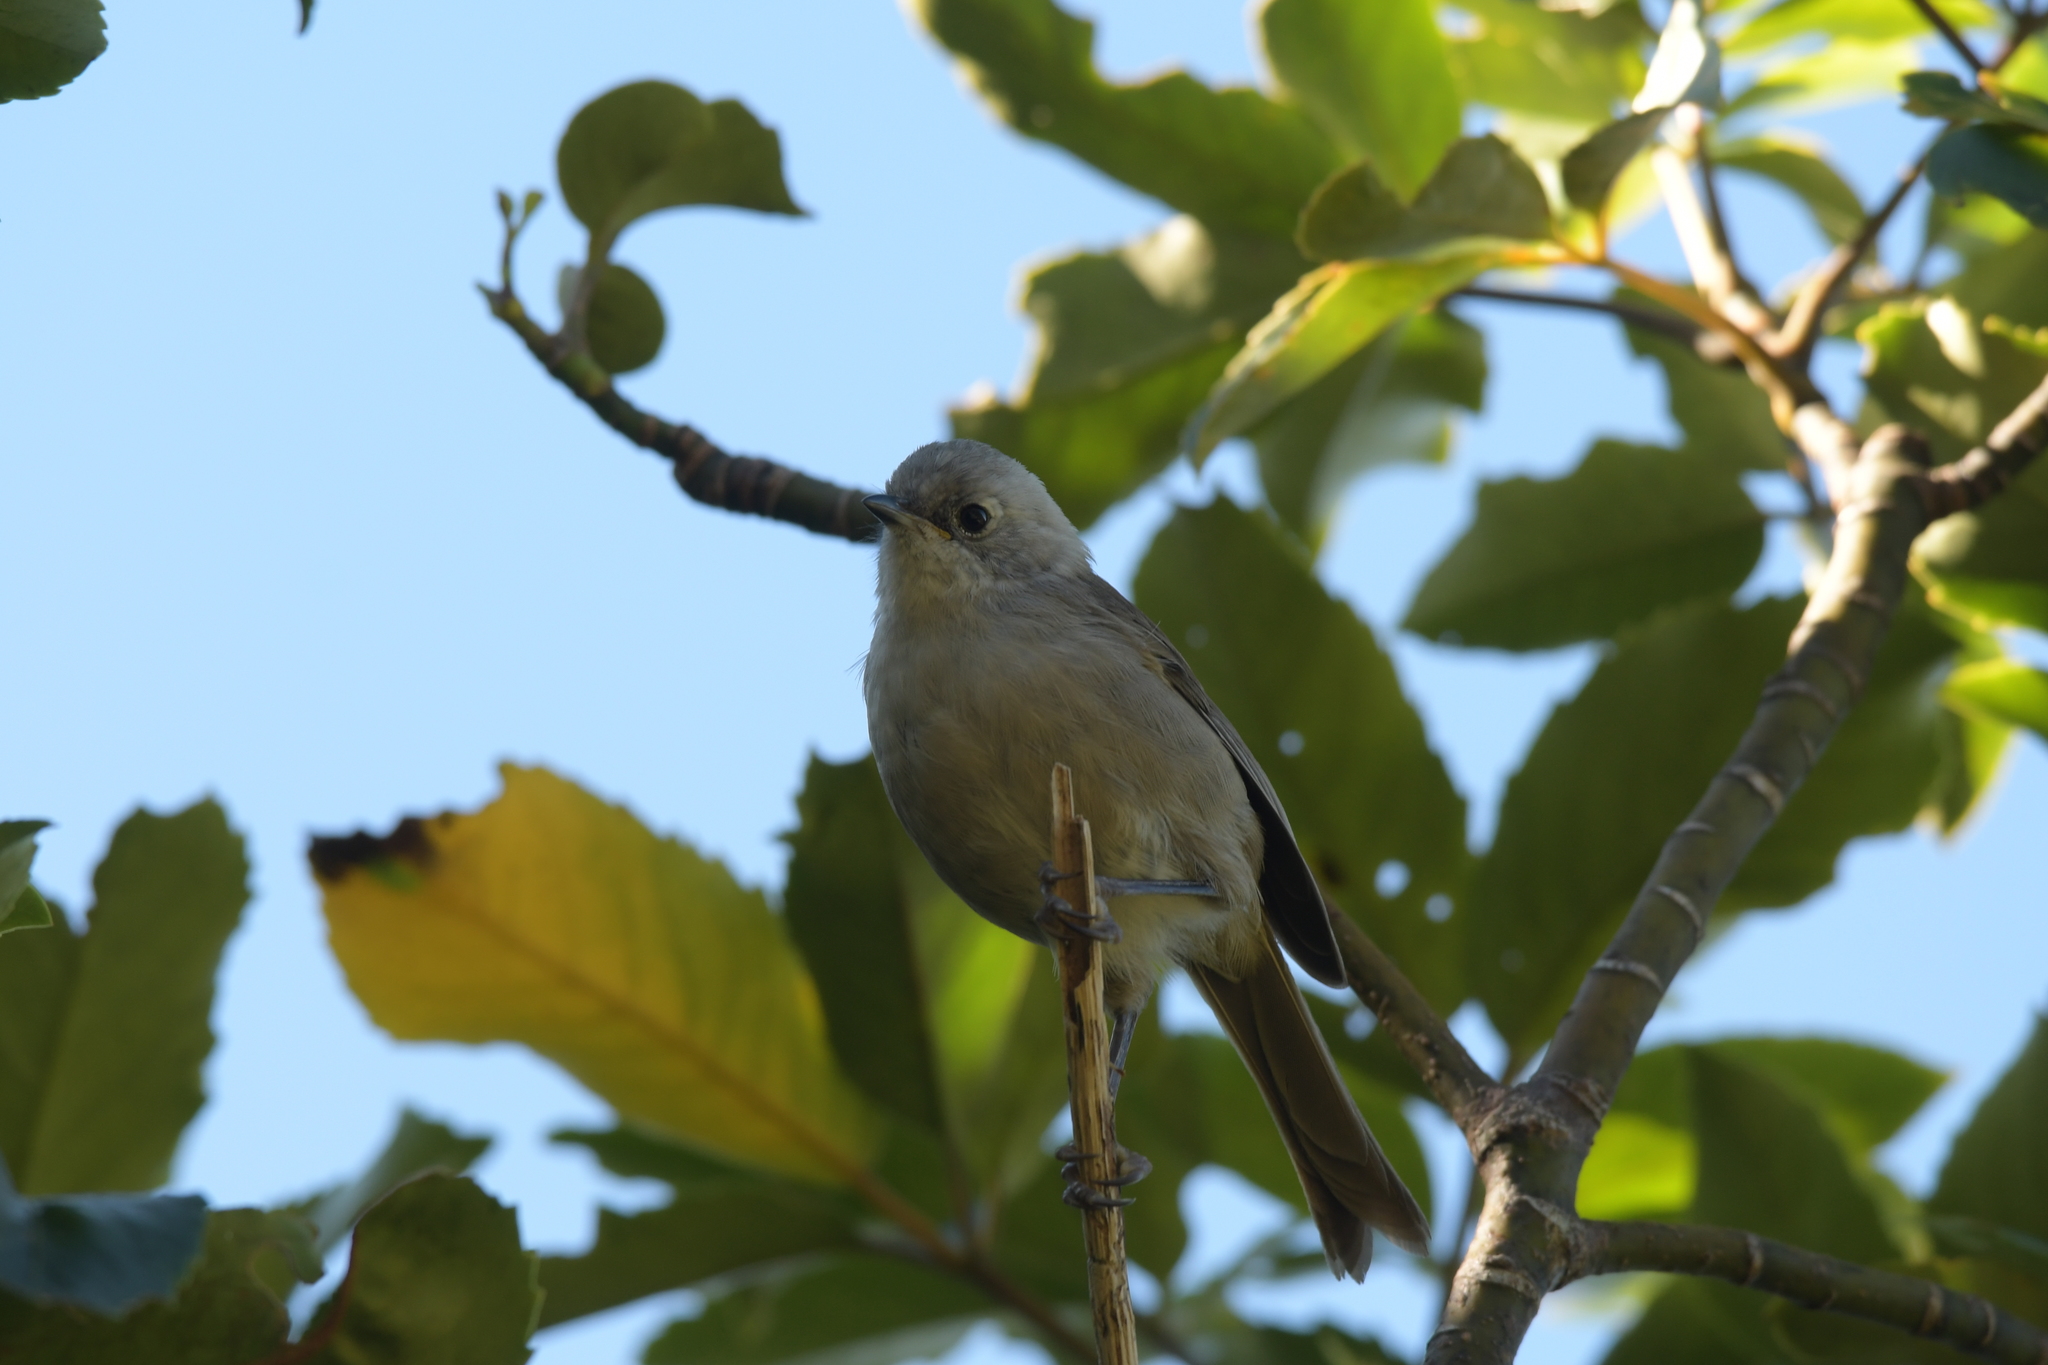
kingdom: Animalia
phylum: Chordata
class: Aves
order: Passeriformes
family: Acanthizidae
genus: Mohoua
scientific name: Mohoua albicilla
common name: Whitehead
